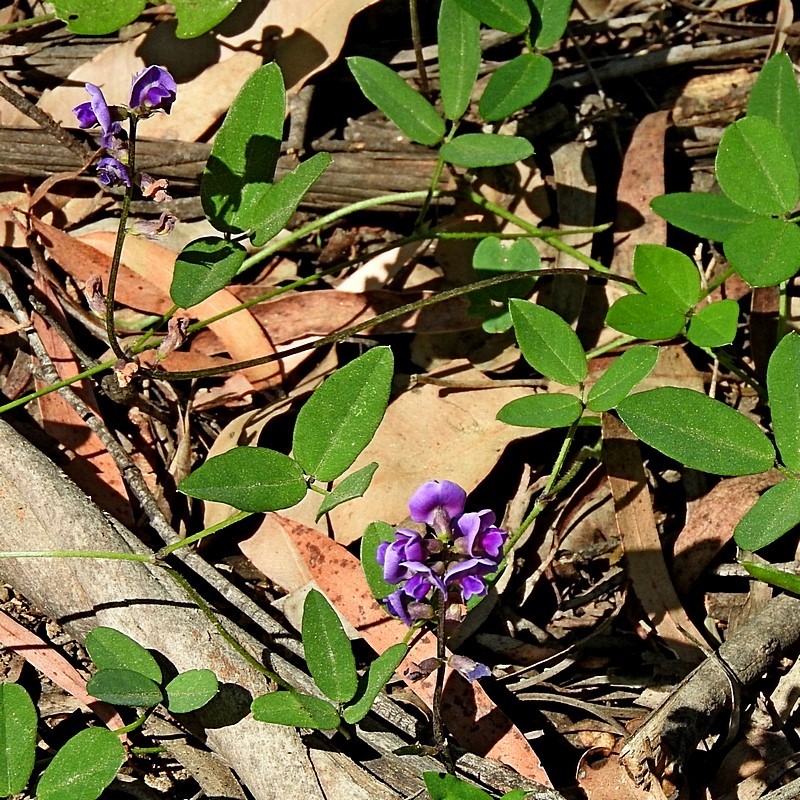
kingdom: Plantae
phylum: Tracheophyta
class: Magnoliopsida
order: Fabales
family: Fabaceae
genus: Glycine
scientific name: Glycine tabacina
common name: Pea glycine
